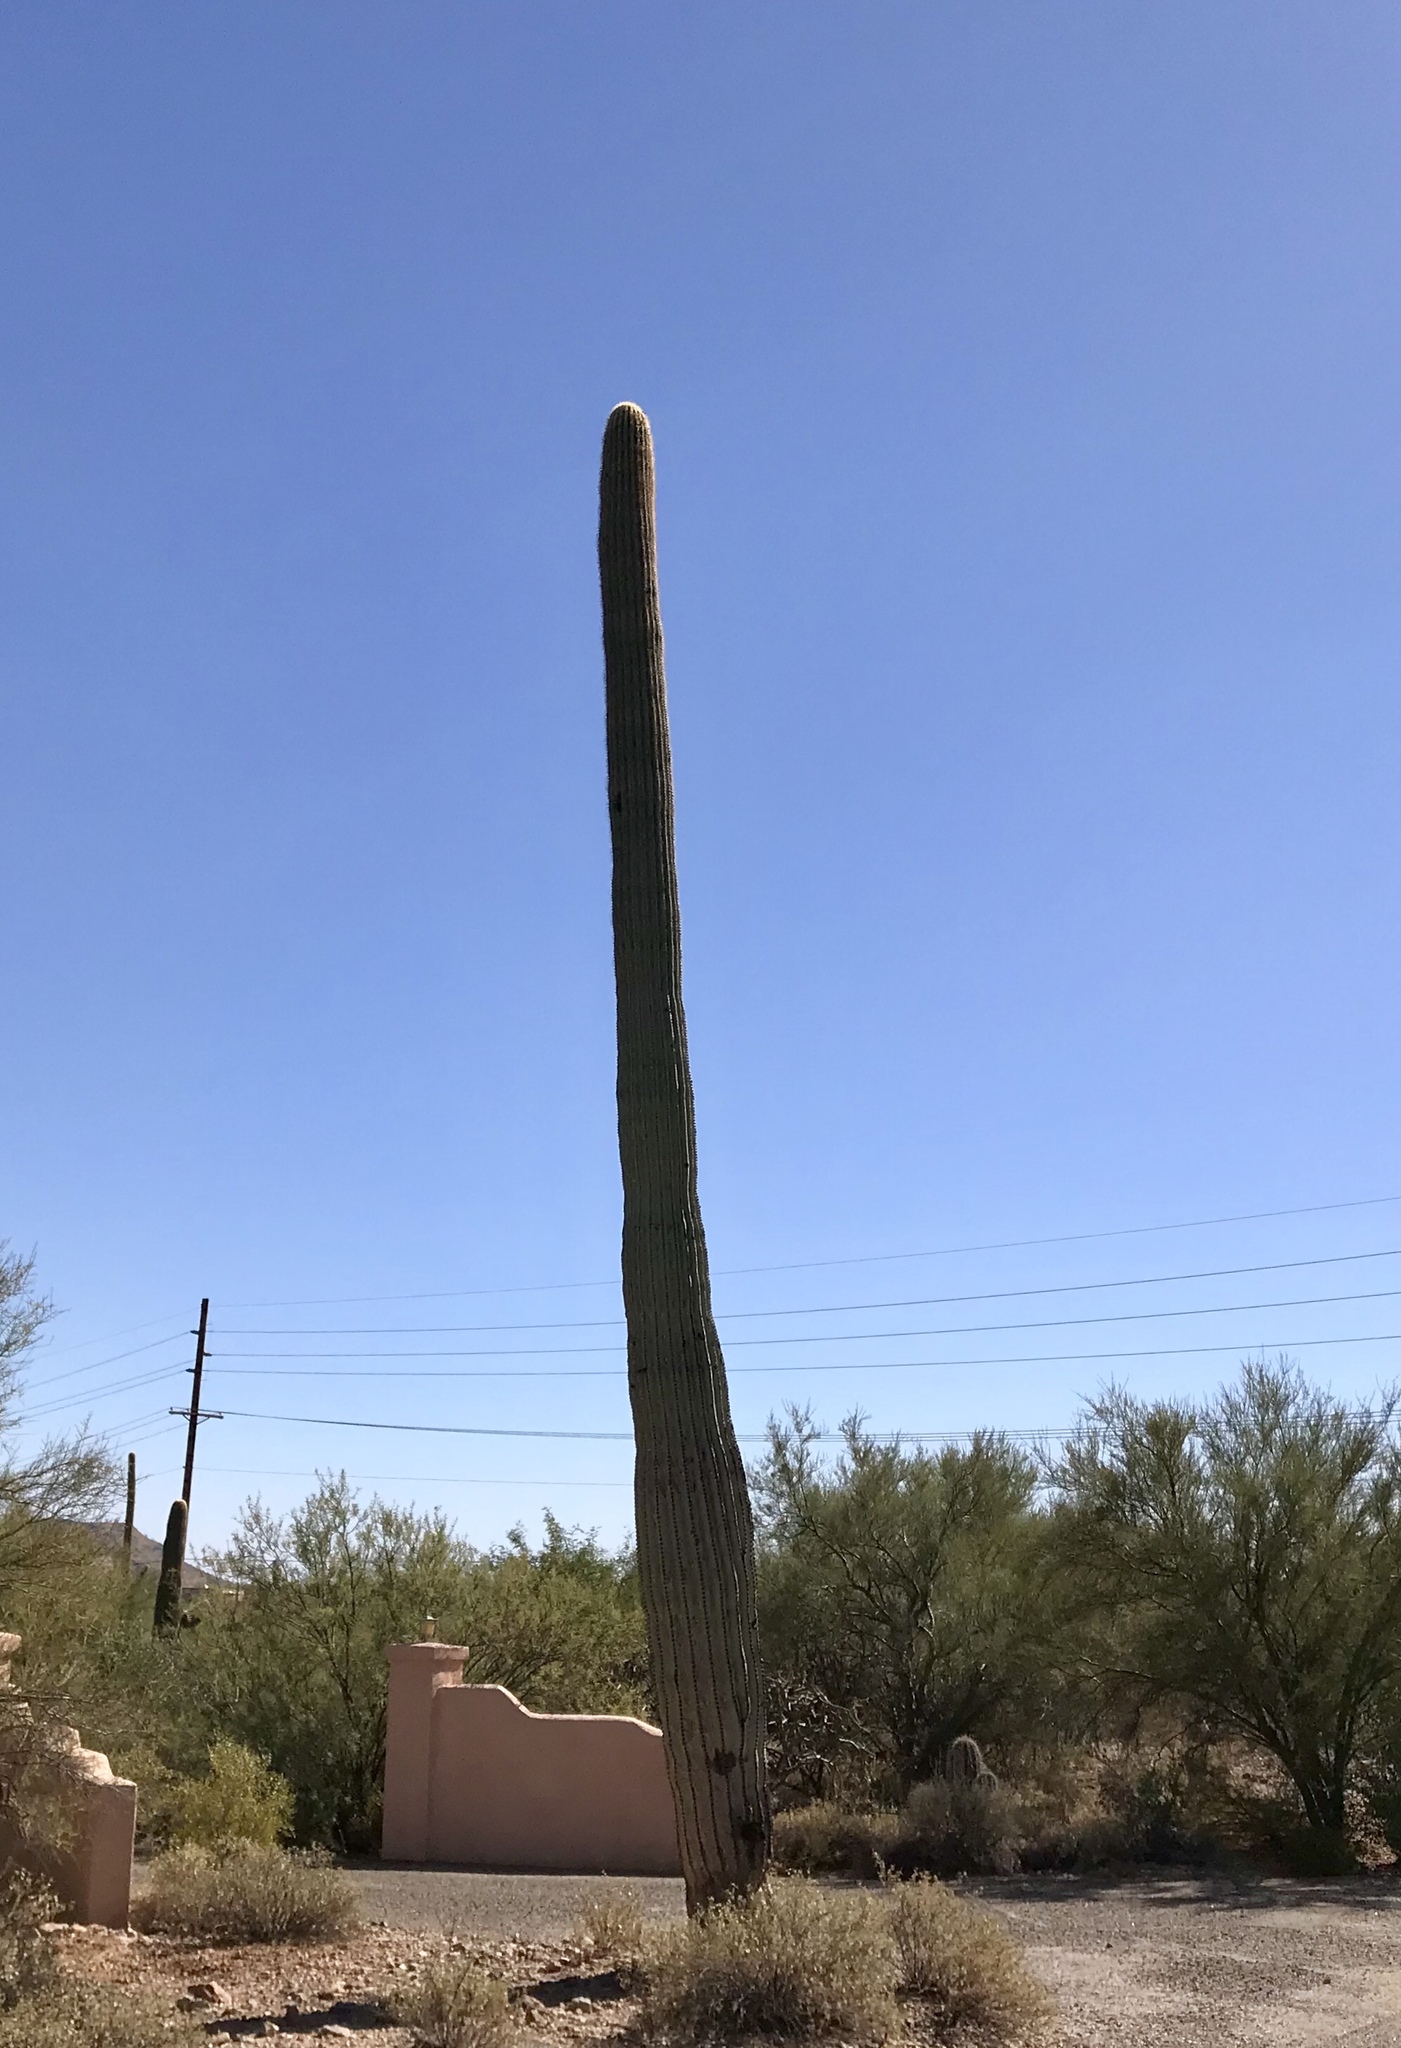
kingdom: Plantae
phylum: Tracheophyta
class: Magnoliopsida
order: Caryophyllales
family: Cactaceae
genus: Carnegiea
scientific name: Carnegiea gigantea
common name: Saguaro
